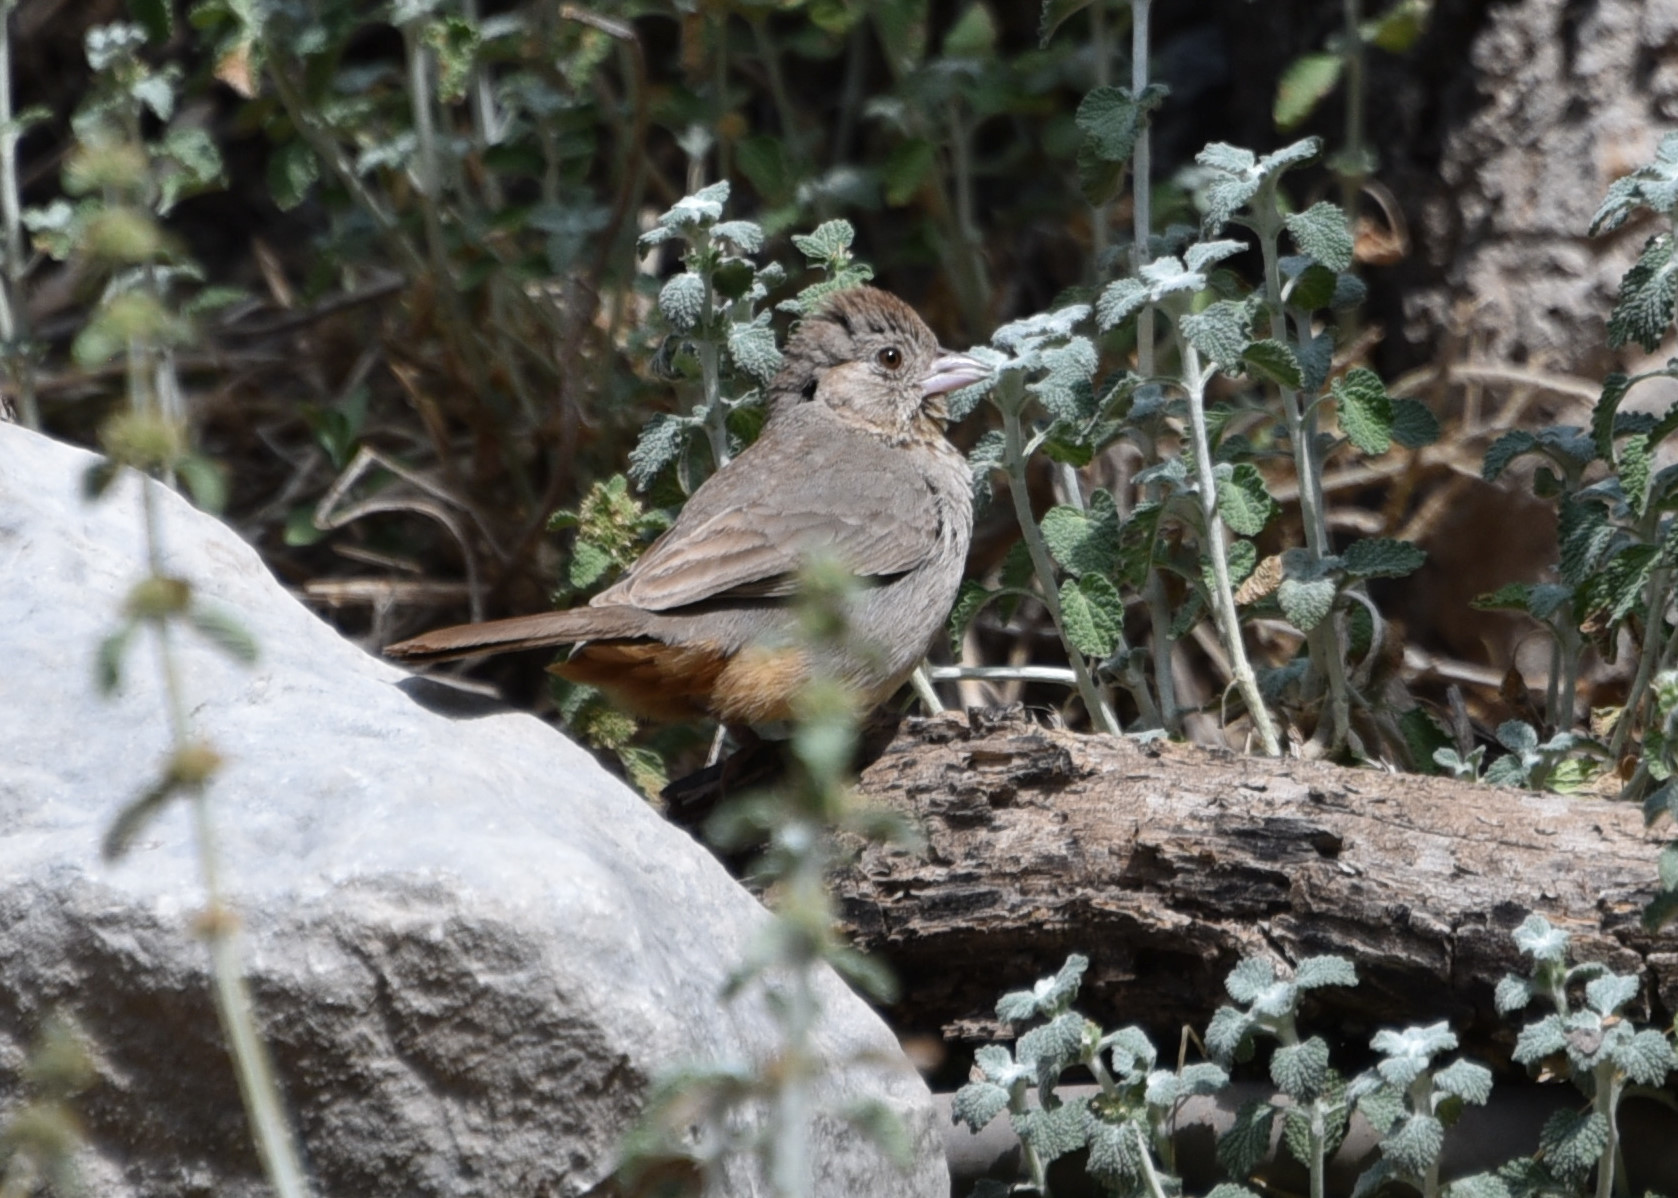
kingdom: Animalia
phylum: Chordata
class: Aves
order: Passeriformes
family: Passerellidae
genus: Melozone
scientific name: Melozone fusca
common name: Canyon towhee
